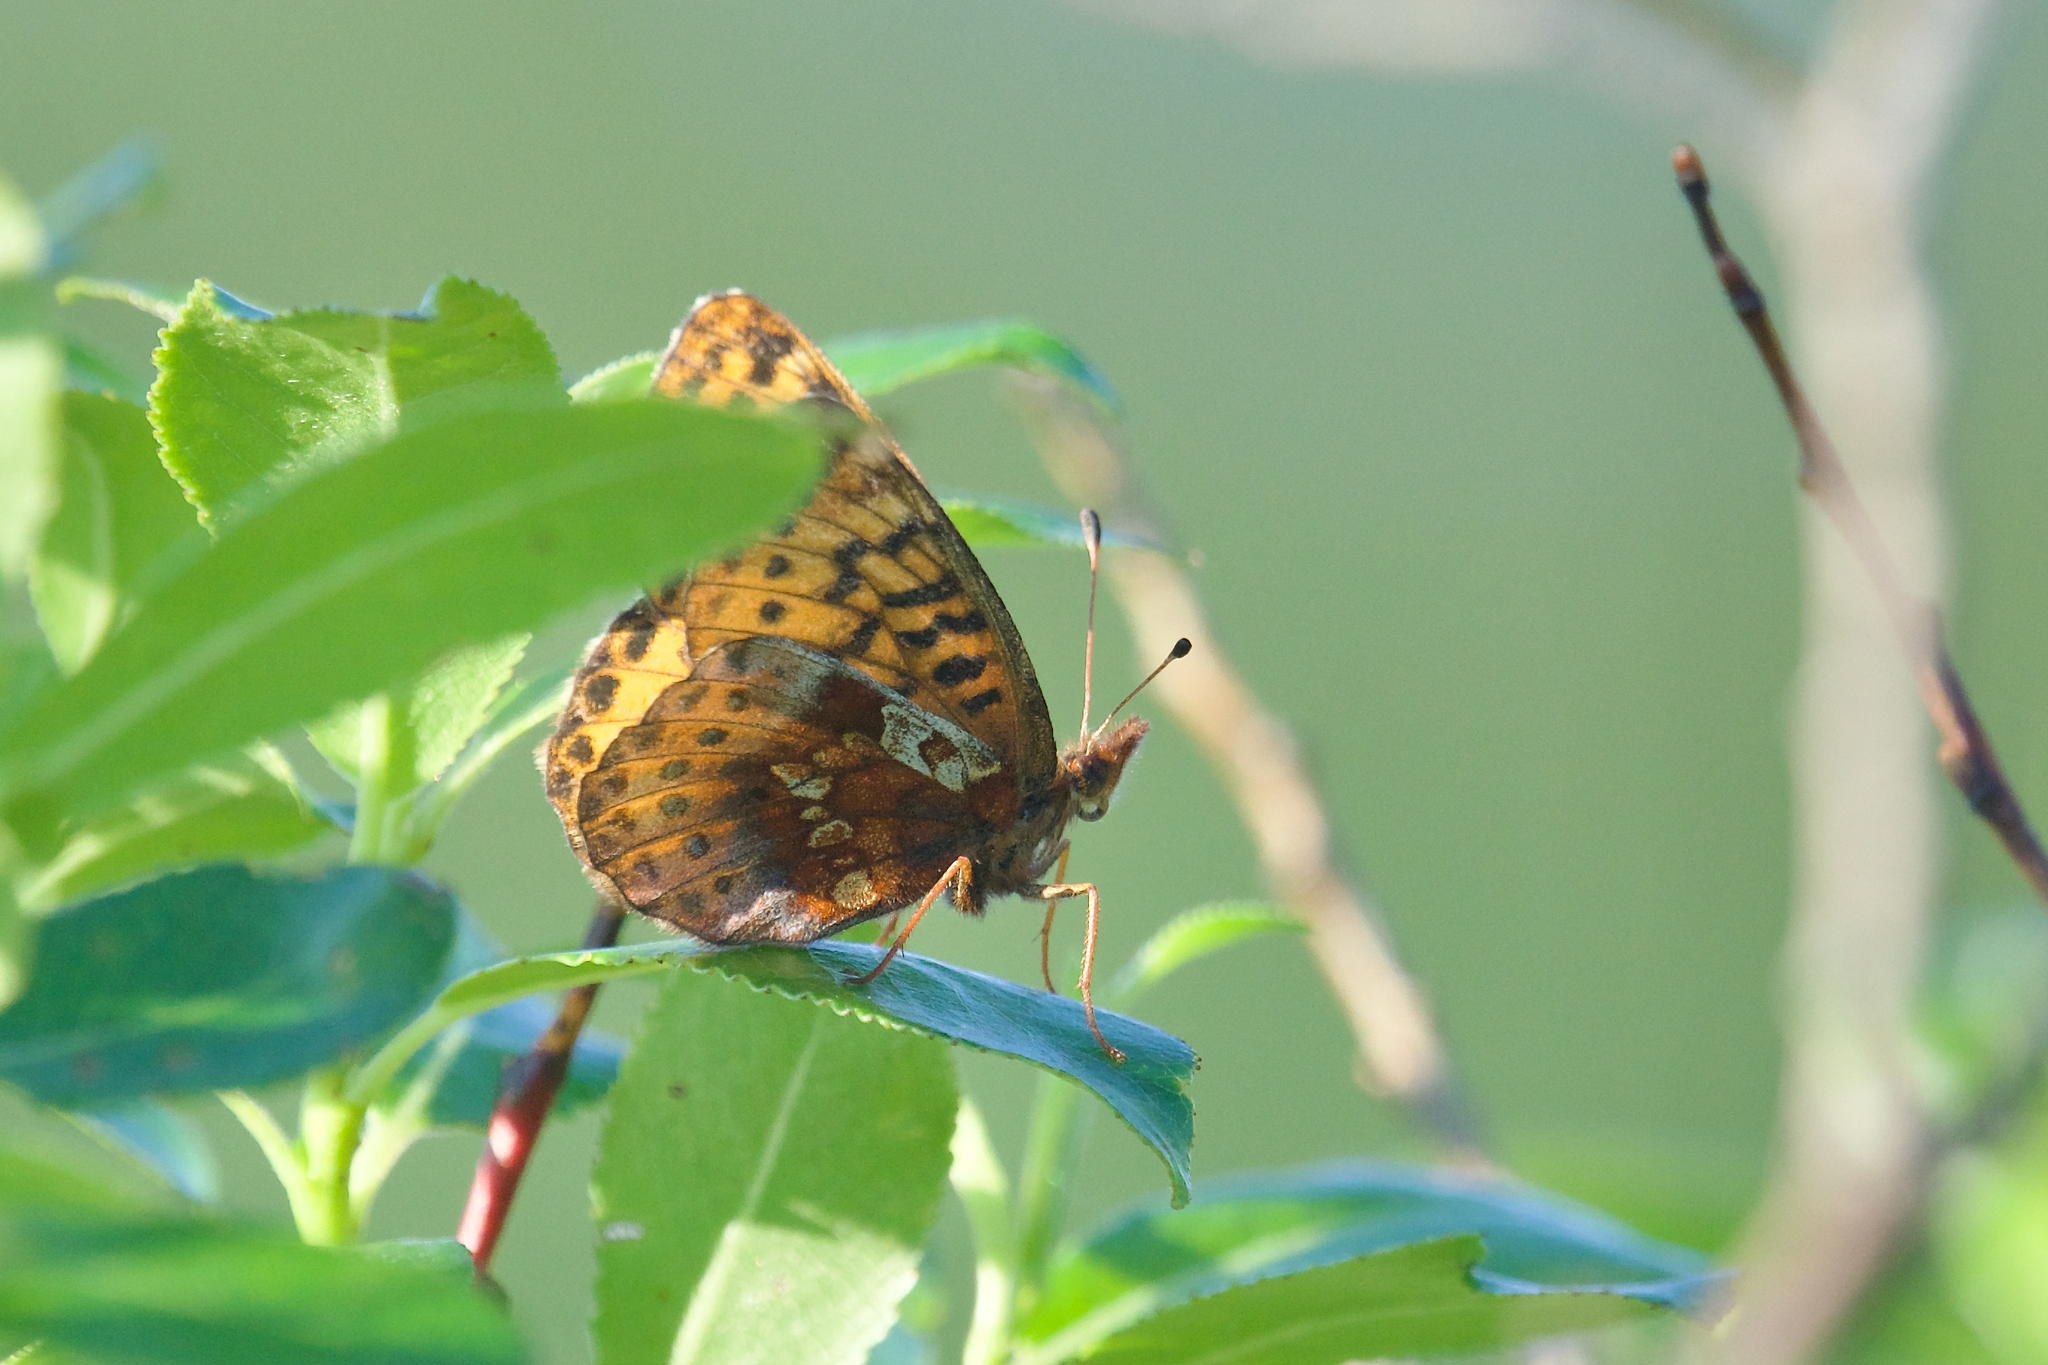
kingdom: Animalia
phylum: Arthropoda
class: Insecta
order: Lepidoptera
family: Nymphalidae
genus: Boloria
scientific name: Boloria frigga
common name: Frigga's fritillary
